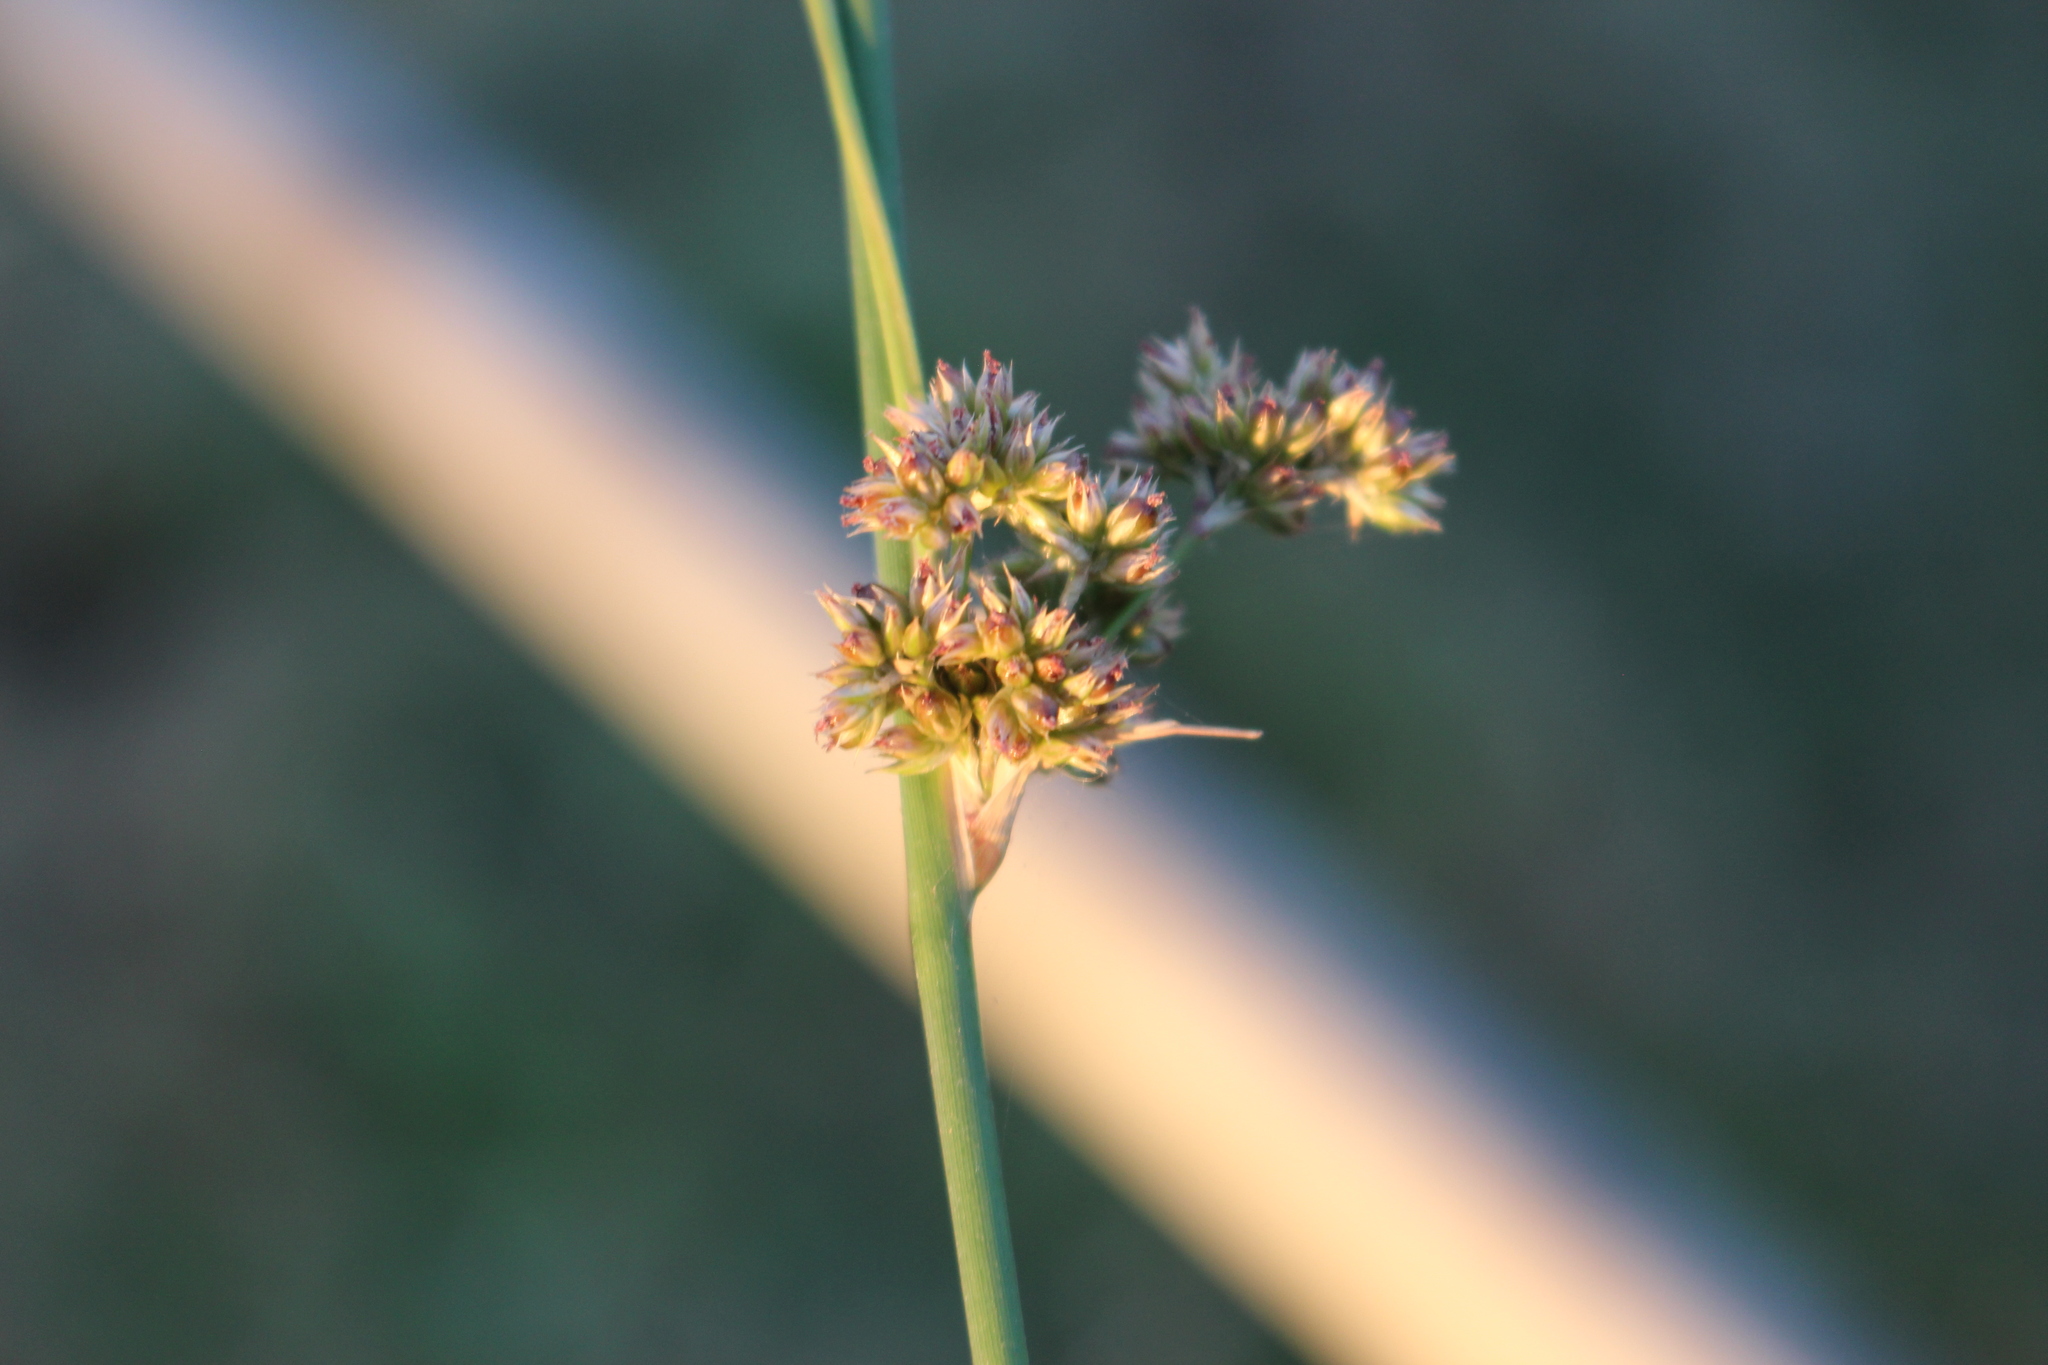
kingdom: Plantae
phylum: Tracheophyta
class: Liliopsida
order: Poales
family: Juncaceae
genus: Juncus
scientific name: Juncus australis
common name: Austral rush
